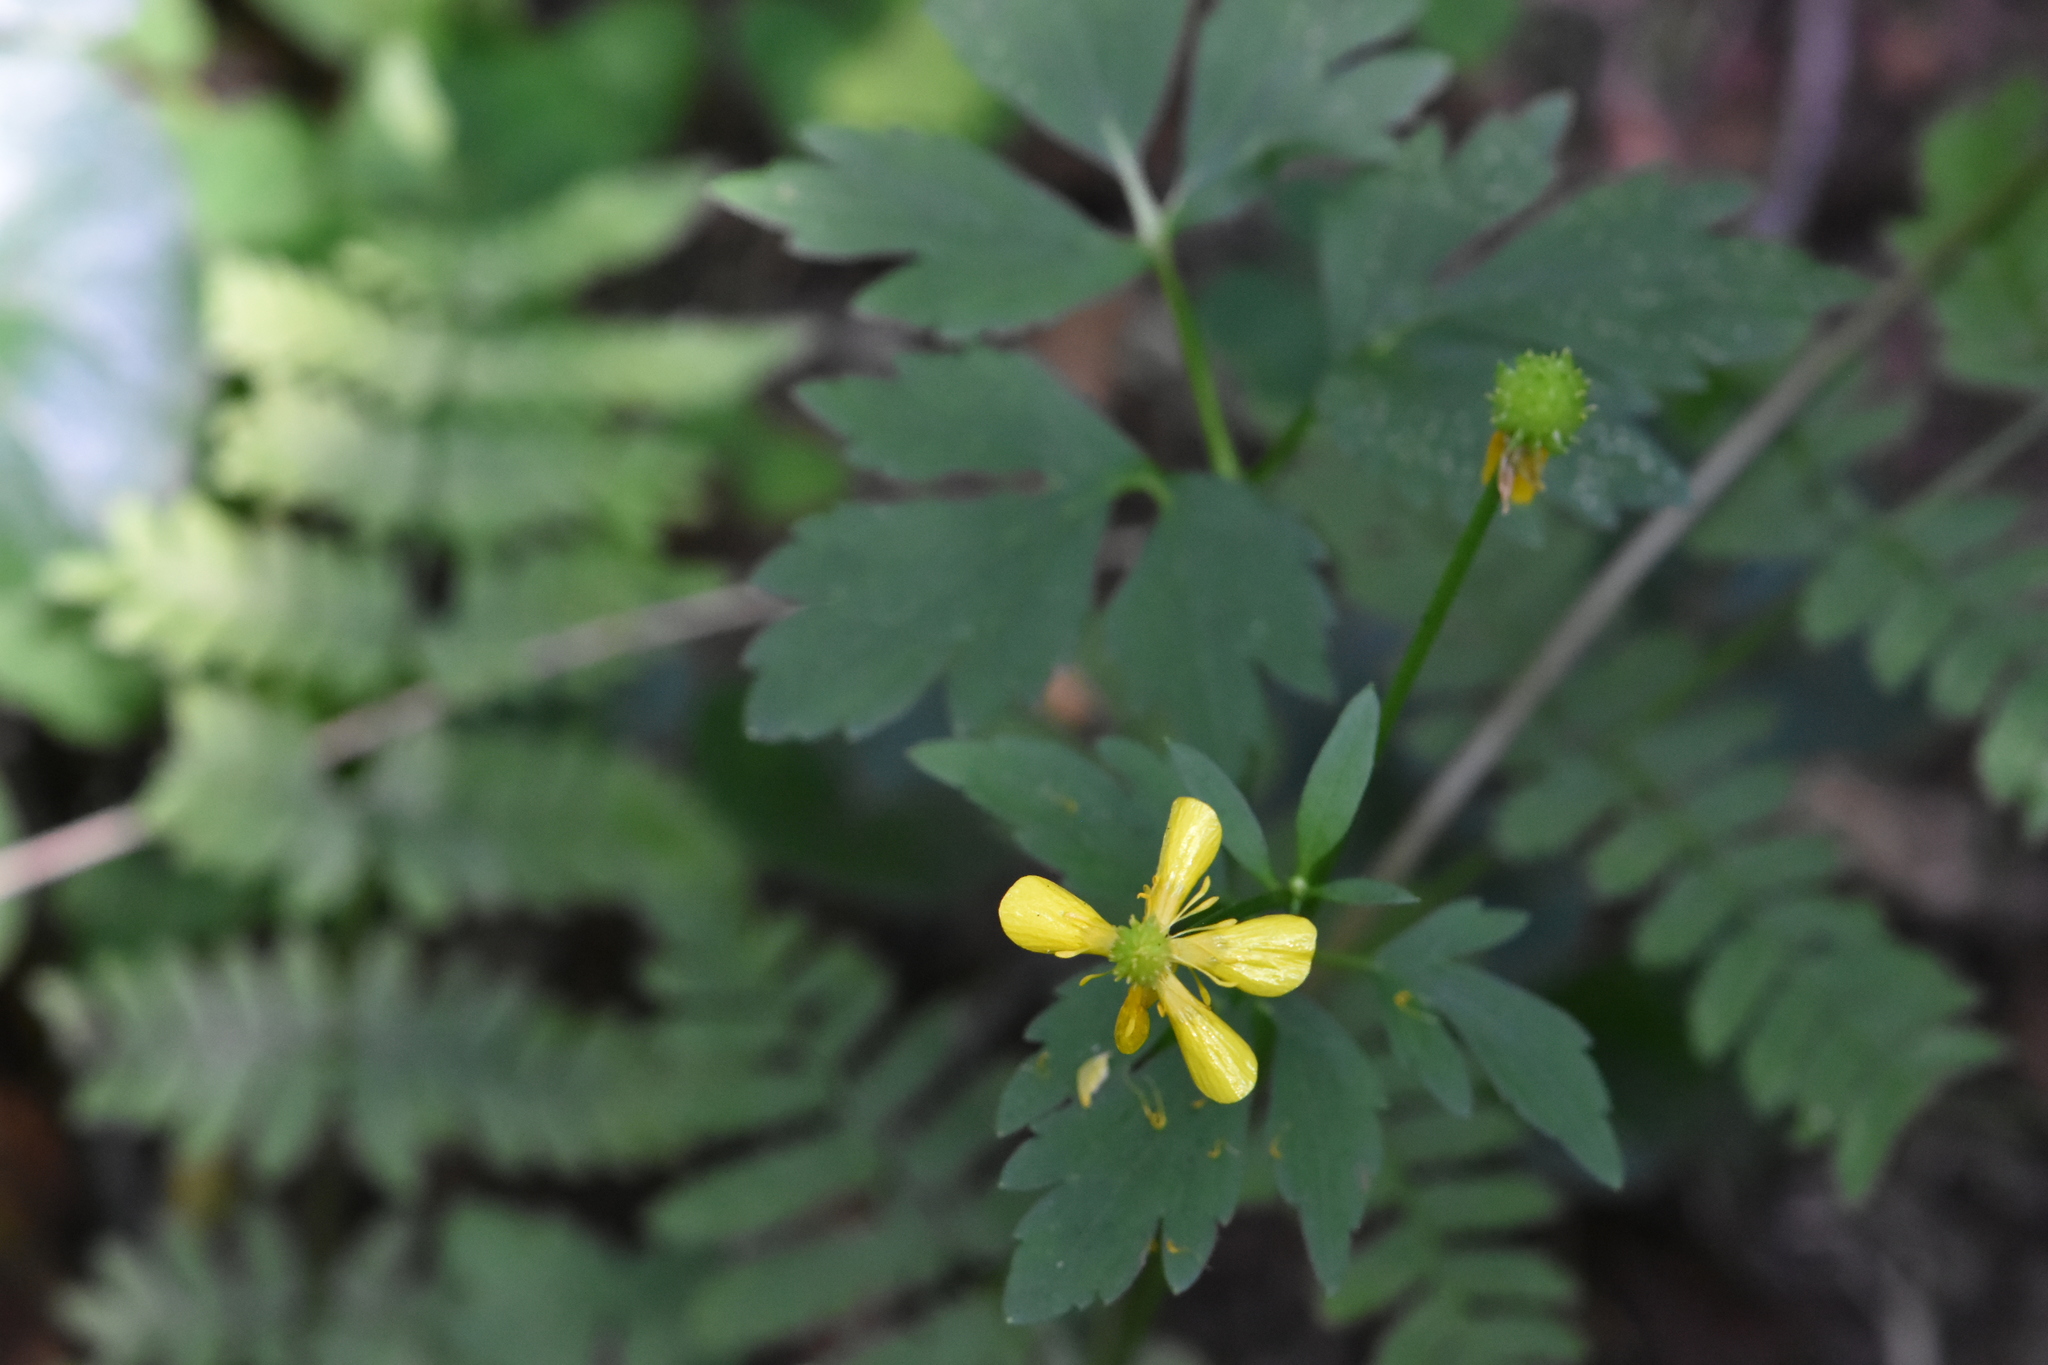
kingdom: Plantae
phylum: Tracheophyta
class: Magnoliopsida
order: Ranunculales
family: Ranunculaceae
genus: Ranunculus
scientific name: Ranunculus repens
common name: Creeping buttercup
